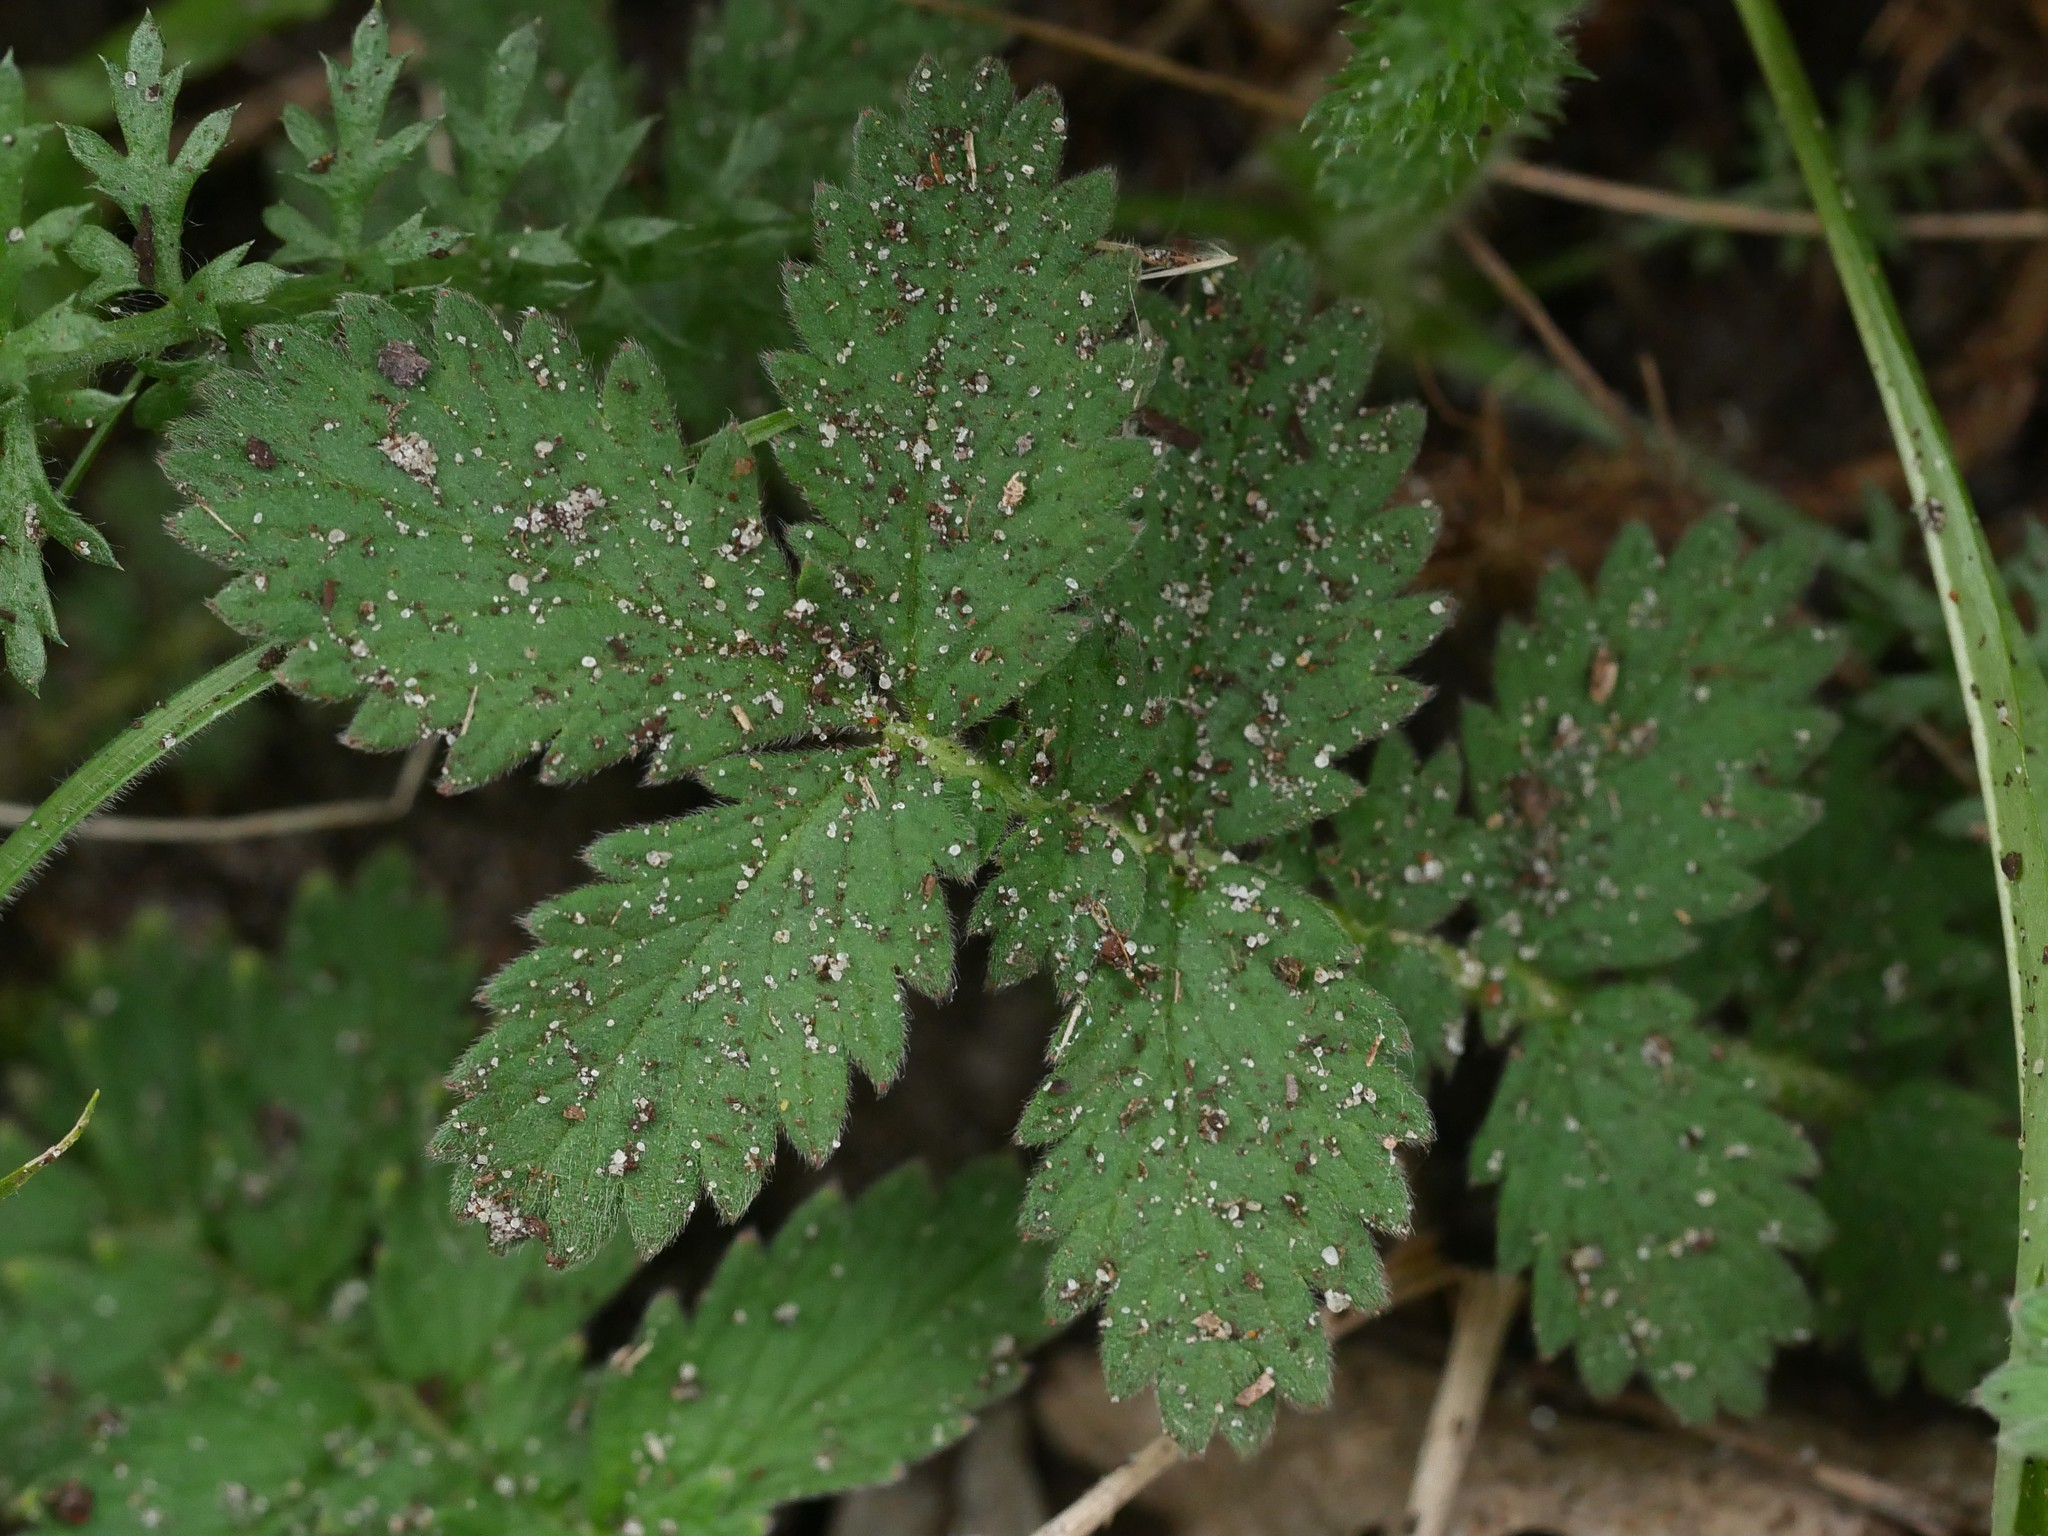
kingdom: Plantae
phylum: Tracheophyta
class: Magnoliopsida
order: Rosales
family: Rosaceae
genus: Agrimonia
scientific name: Agrimonia eupatoria
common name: Agrimony
